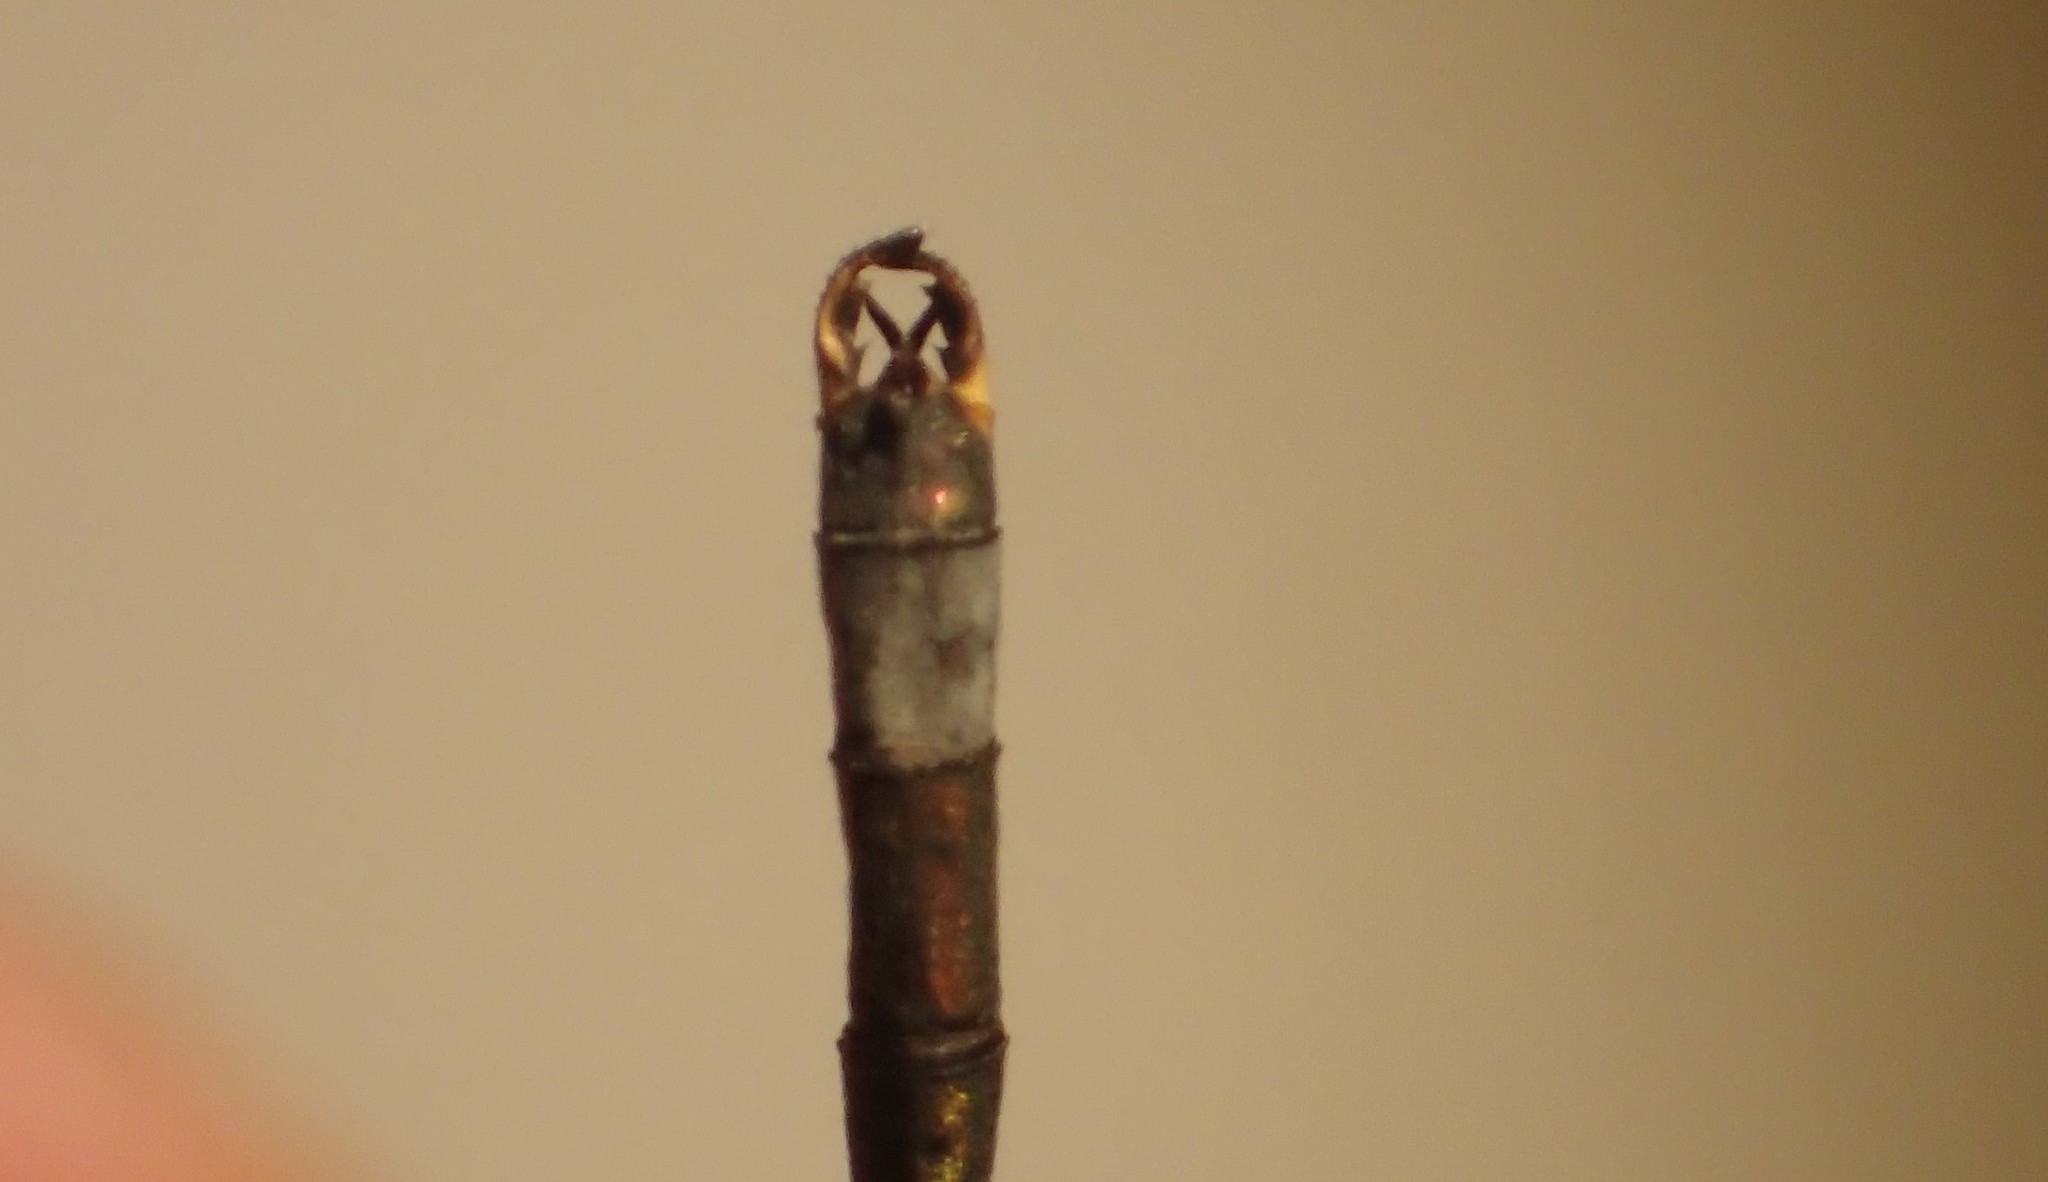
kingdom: Animalia
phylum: Arthropoda
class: Insecta
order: Odonata
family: Lestidae
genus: Lestes
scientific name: Lestes disjunctus
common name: Northern spreadwing
